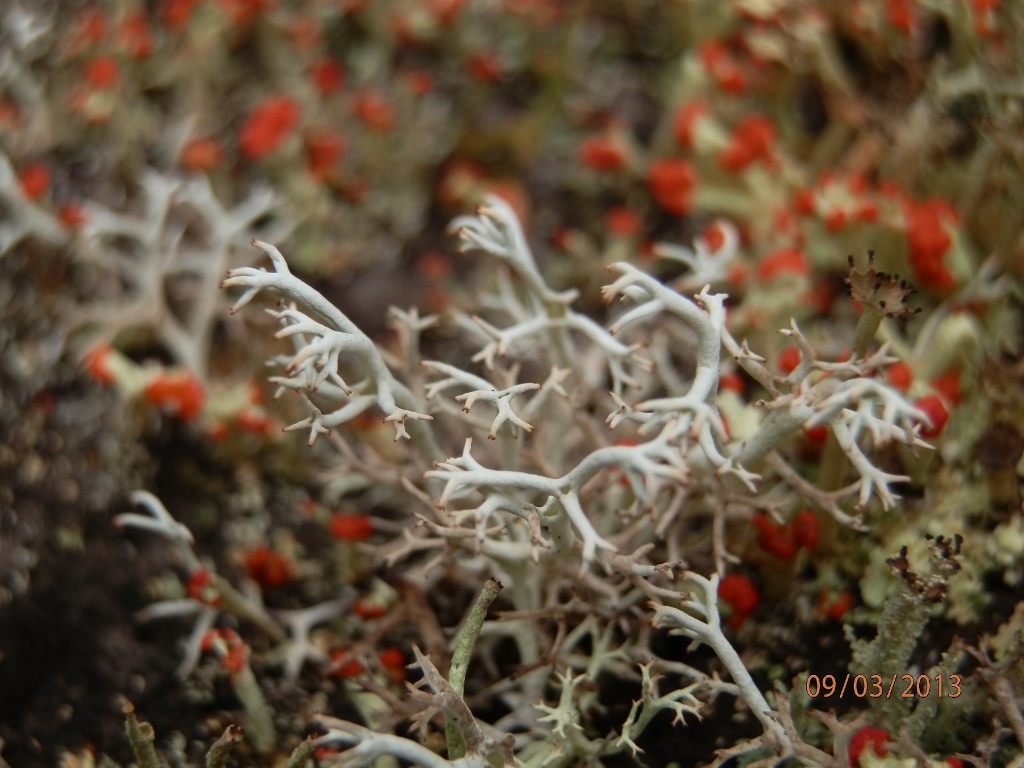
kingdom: Fungi
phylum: Ascomycota
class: Lecanoromycetes
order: Lecanorales
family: Cladoniaceae
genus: Cladonia
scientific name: Cladonia arbuscula
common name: Reindeer lichen
